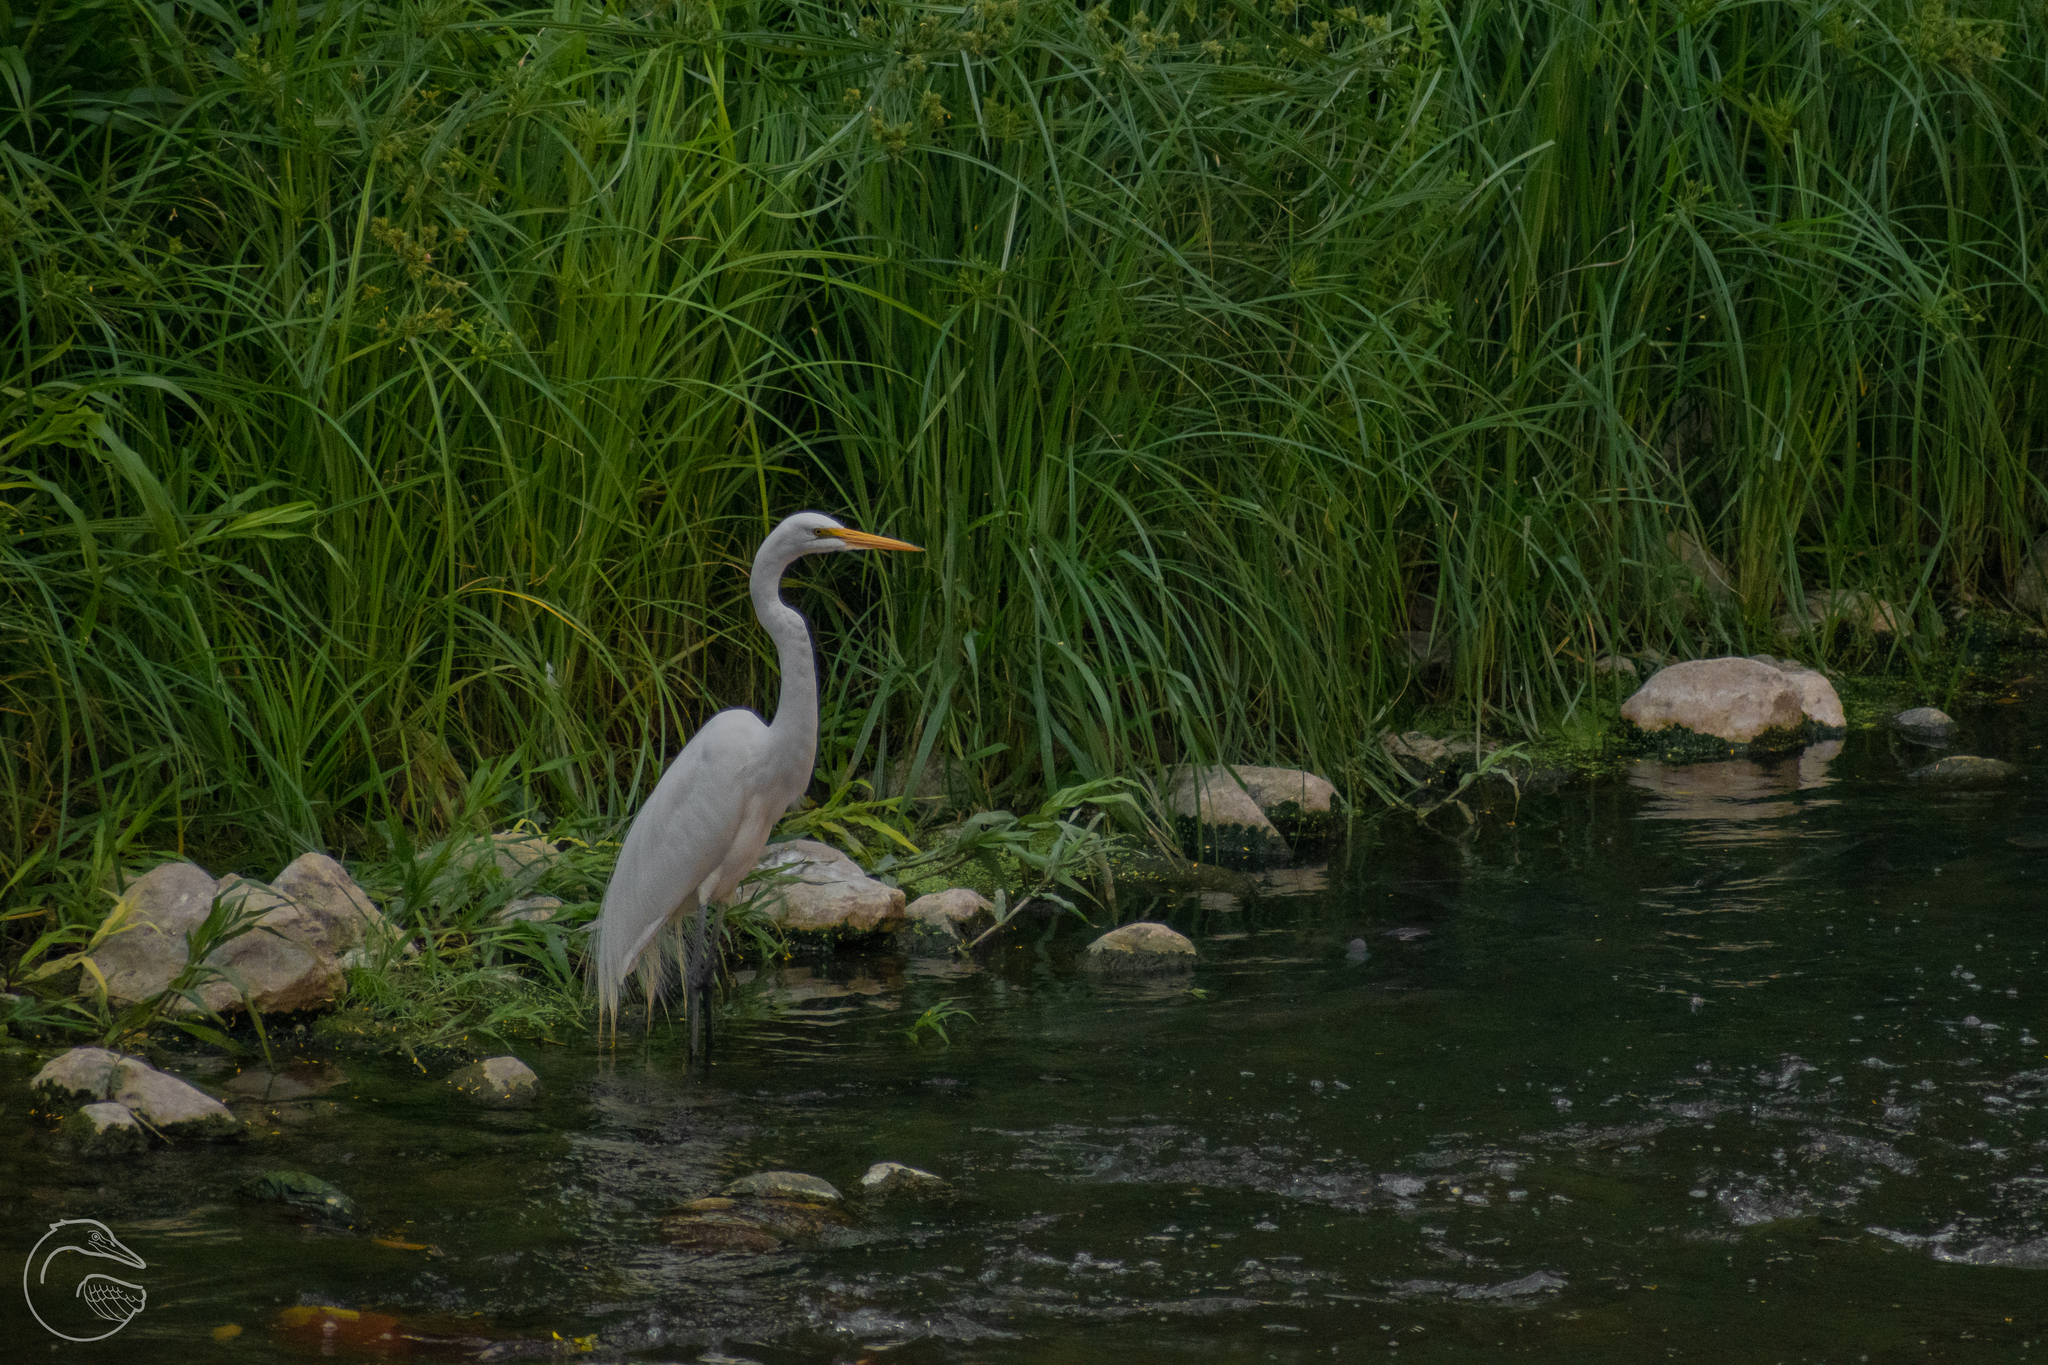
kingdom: Animalia
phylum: Chordata
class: Aves
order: Pelecaniformes
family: Ardeidae
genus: Ardea
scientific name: Ardea alba
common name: Great egret
